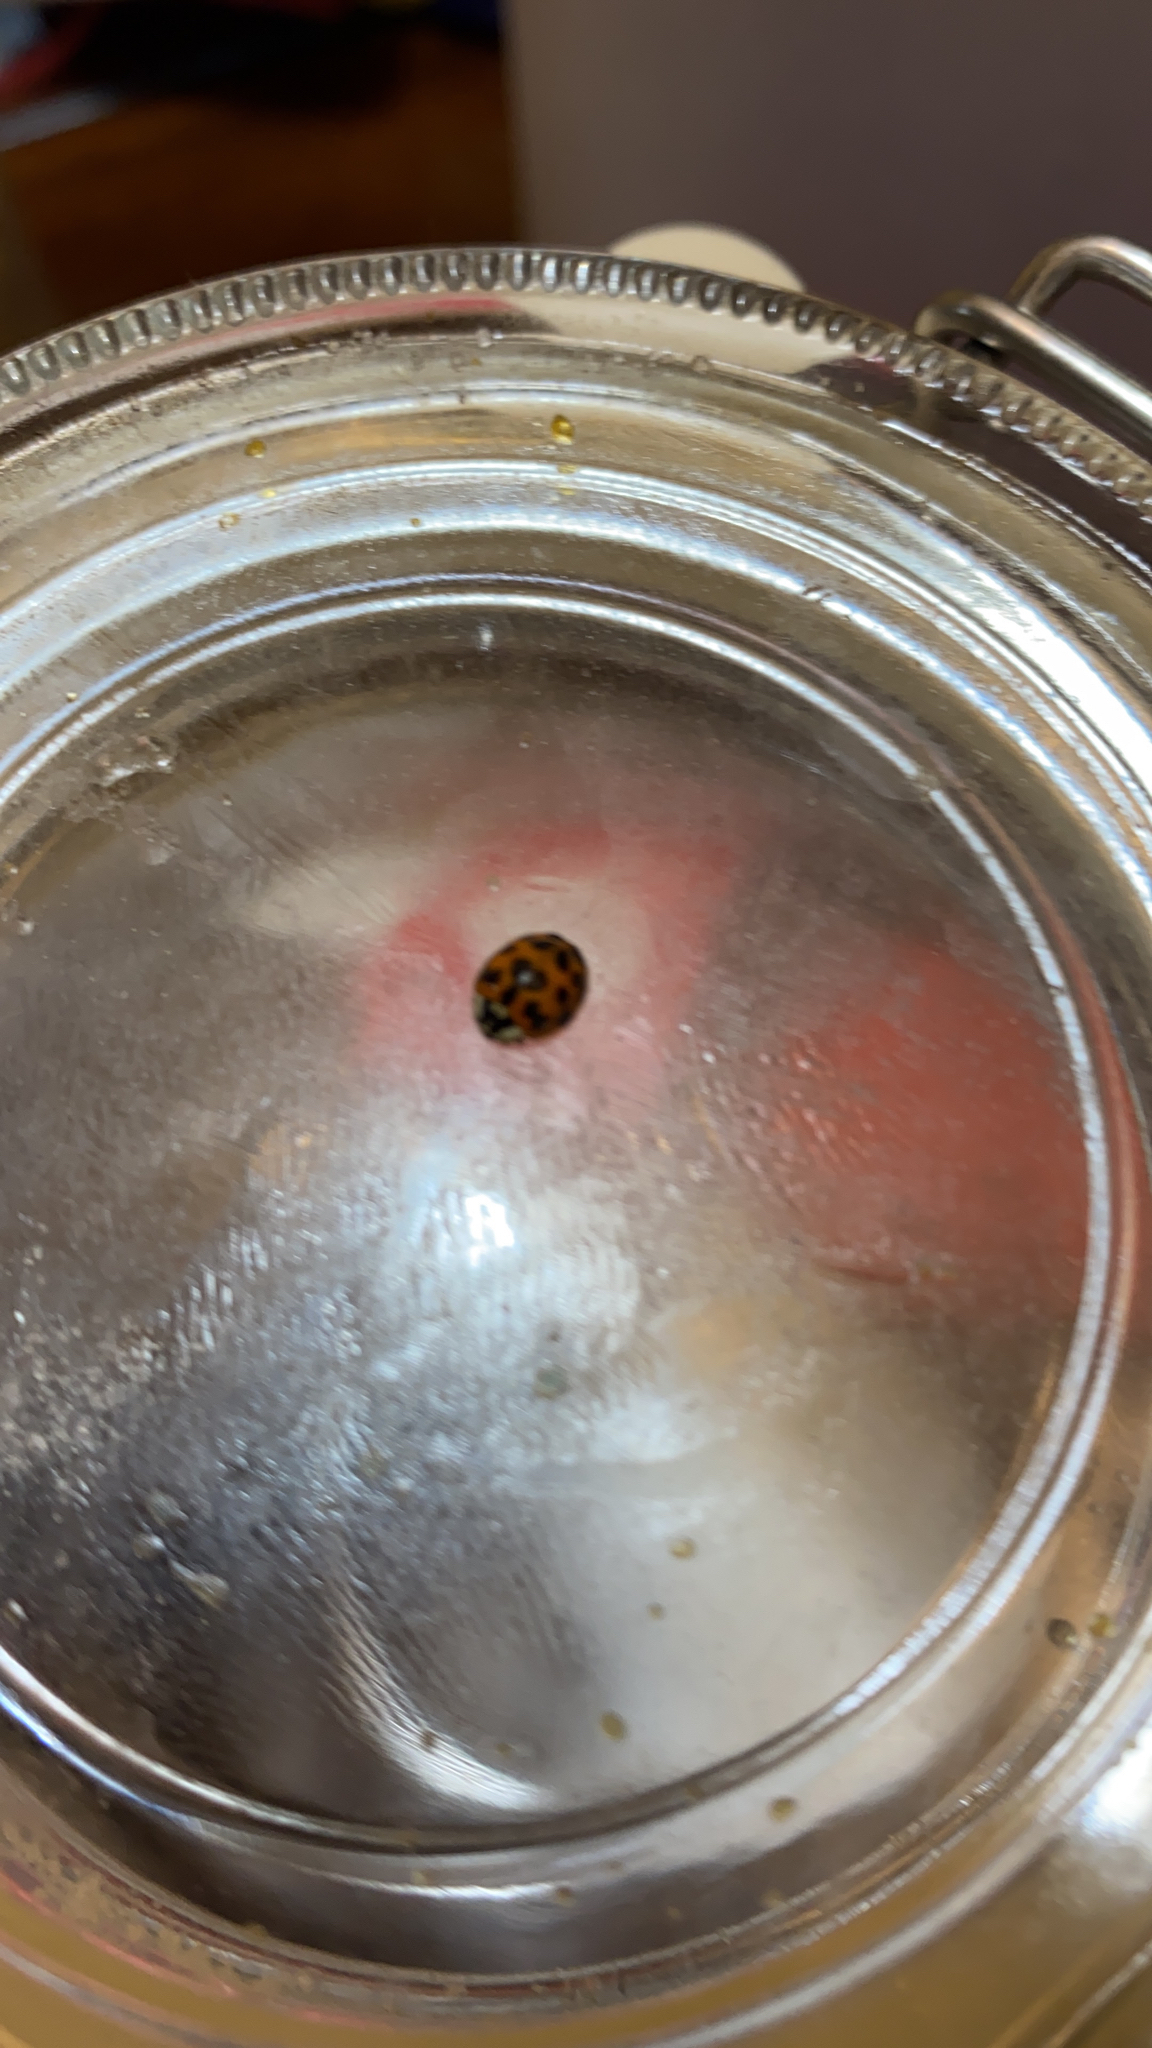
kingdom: Animalia
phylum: Arthropoda
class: Insecta
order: Coleoptera
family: Coccinellidae
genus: Harmonia
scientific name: Harmonia axyridis
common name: Harlequin ladybird
